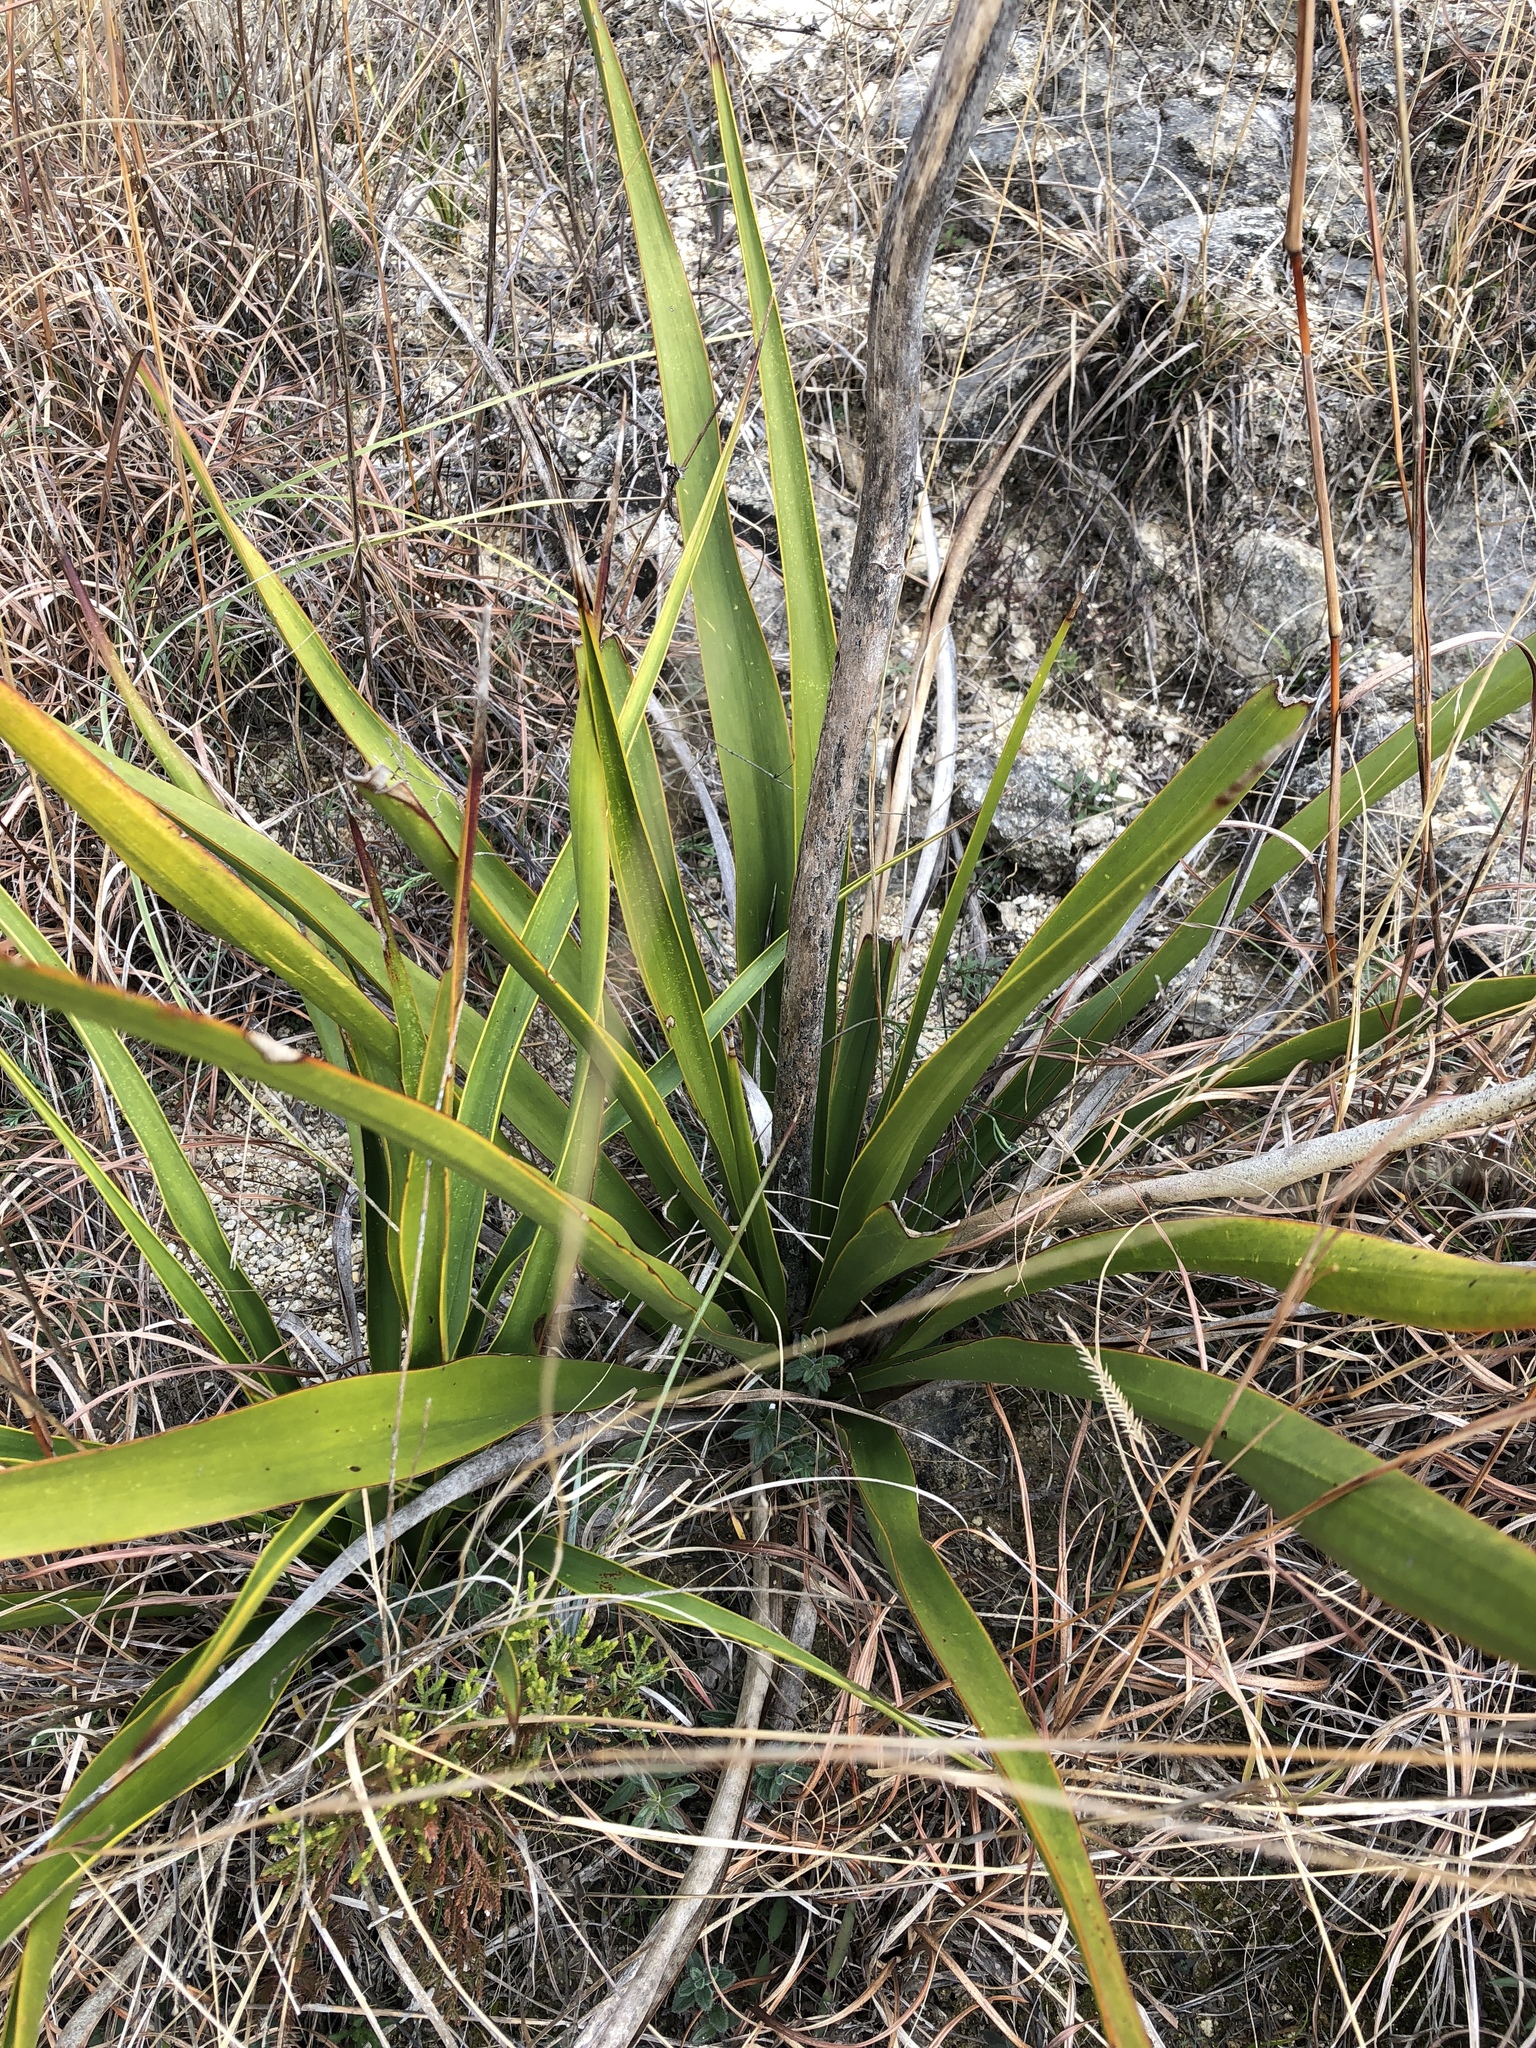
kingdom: Plantae
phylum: Tracheophyta
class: Liliopsida
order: Asparagales
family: Asparagaceae
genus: Yucca
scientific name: Yucca rupicola
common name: Twisted-leaf spanish-dagger
